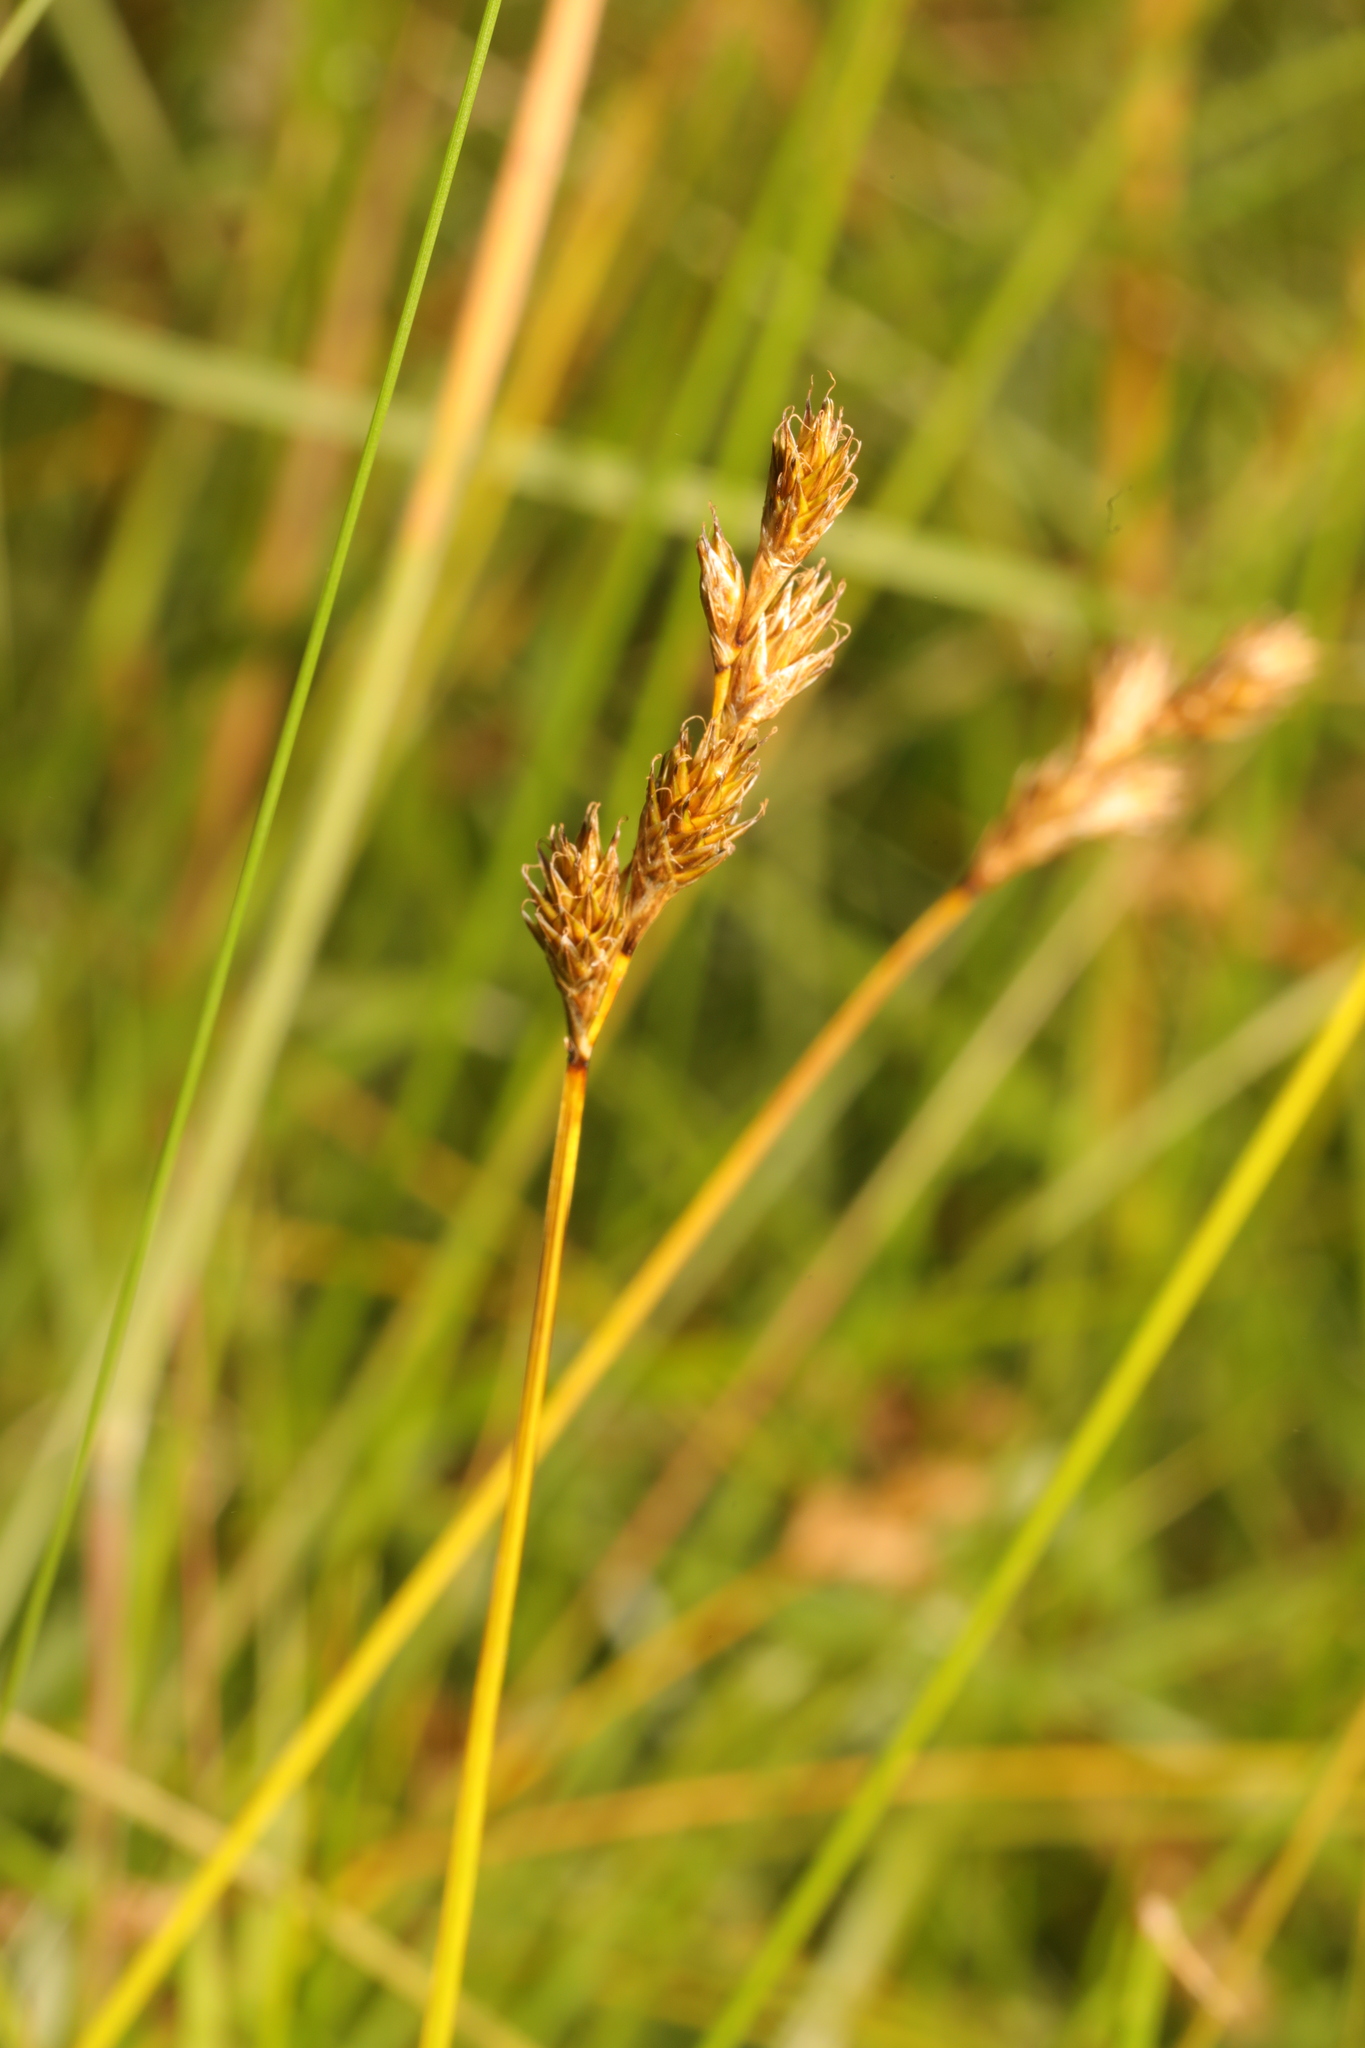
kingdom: Plantae
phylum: Tracheophyta
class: Liliopsida
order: Poales
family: Cyperaceae
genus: Carex
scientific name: Carex leporina
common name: Oval sedge
